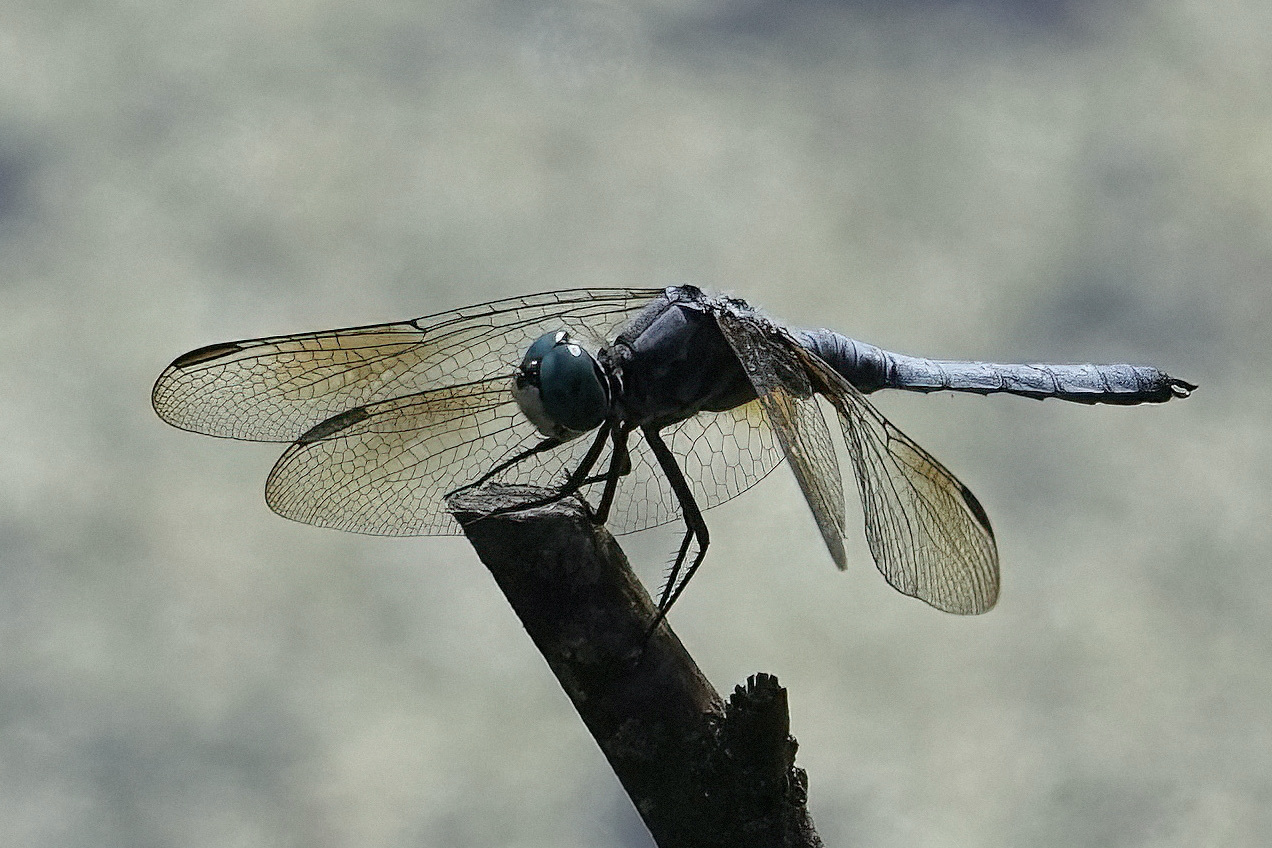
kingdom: Animalia
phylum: Arthropoda
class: Insecta
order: Odonata
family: Libellulidae
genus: Pachydiplax
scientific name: Pachydiplax longipennis
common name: Blue dasher
